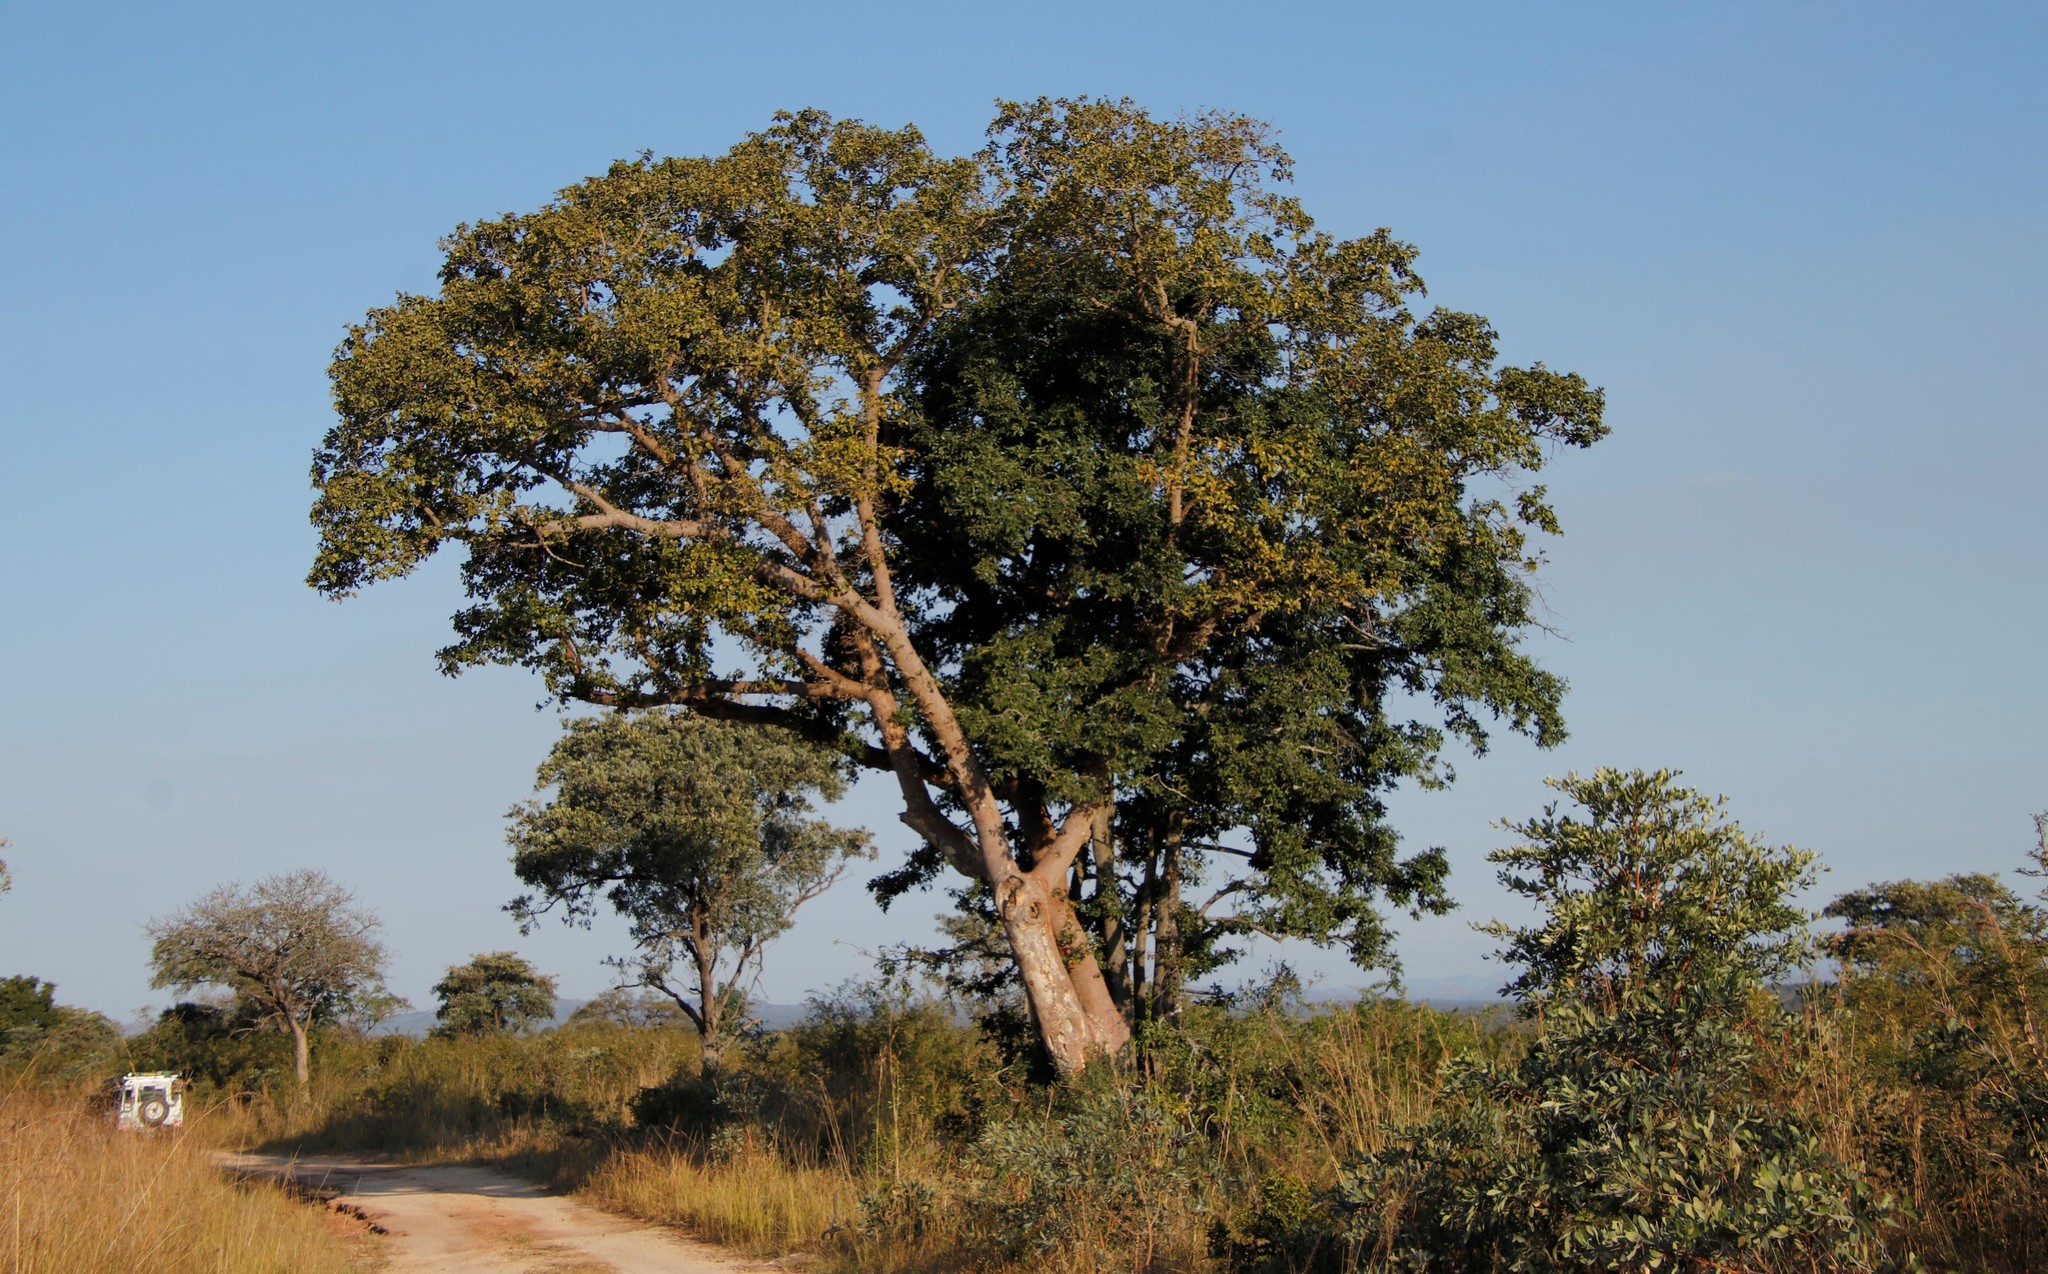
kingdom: Plantae
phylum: Tracheophyta
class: Magnoliopsida
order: Rosales
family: Moraceae
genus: Ficus
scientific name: Ficus sycomorus
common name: Sycomore
